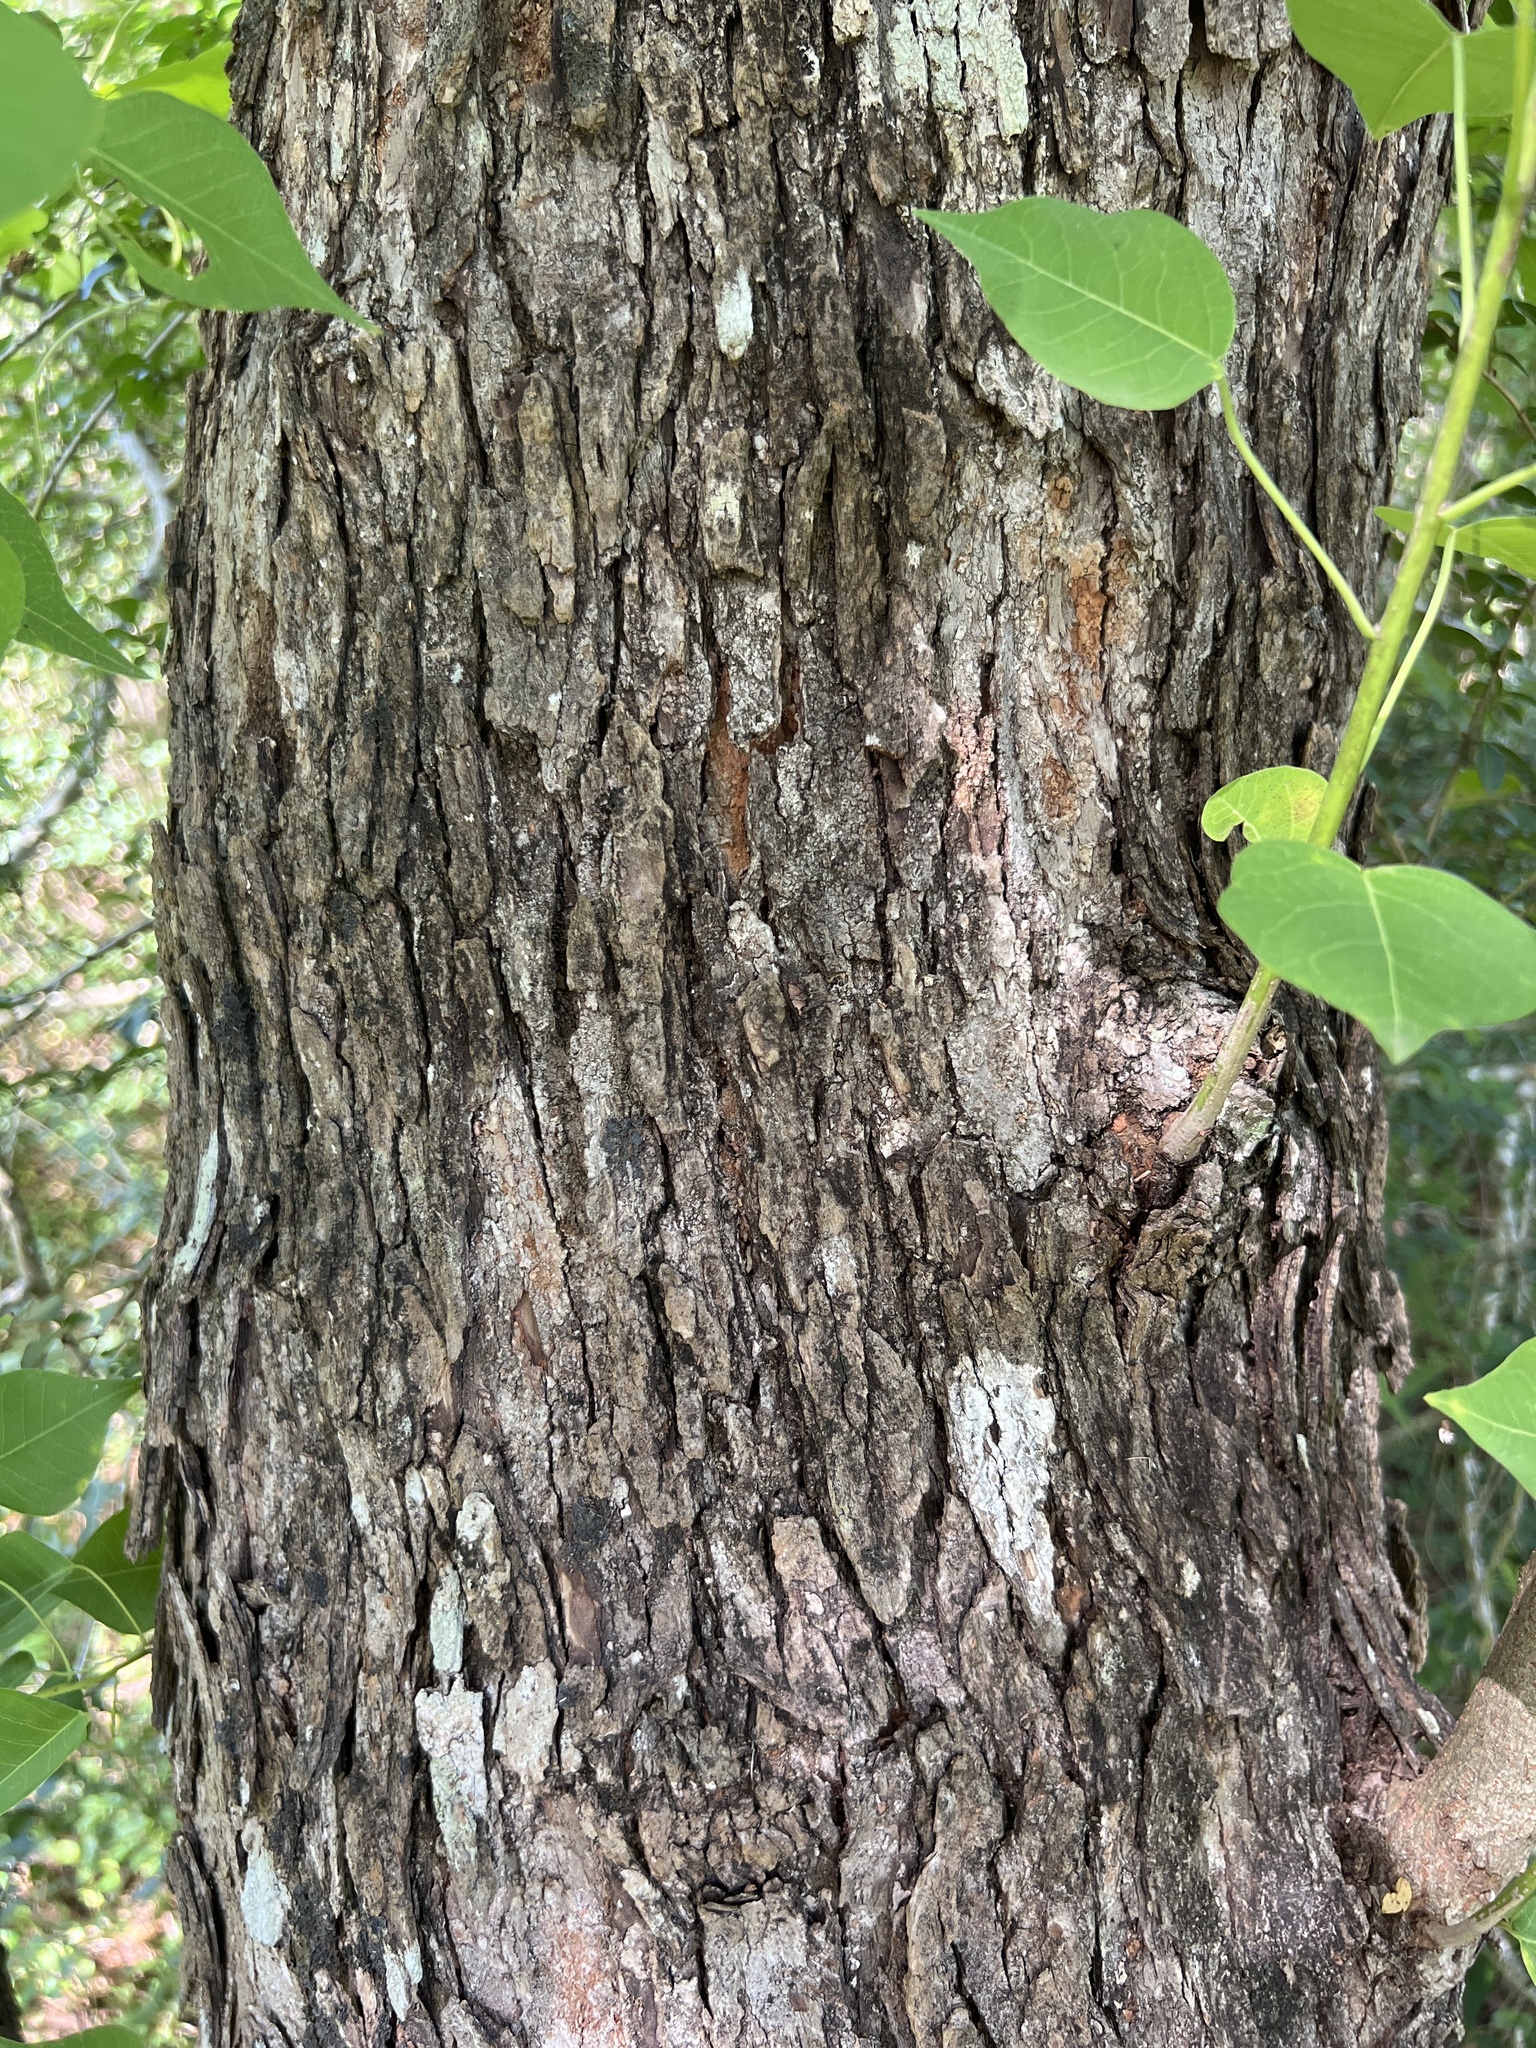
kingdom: Plantae
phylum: Tracheophyta
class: Magnoliopsida
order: Malpighiales
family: Euphorbiaceae
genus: Triadica
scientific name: Triadica sebifera
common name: Chinese tallow
